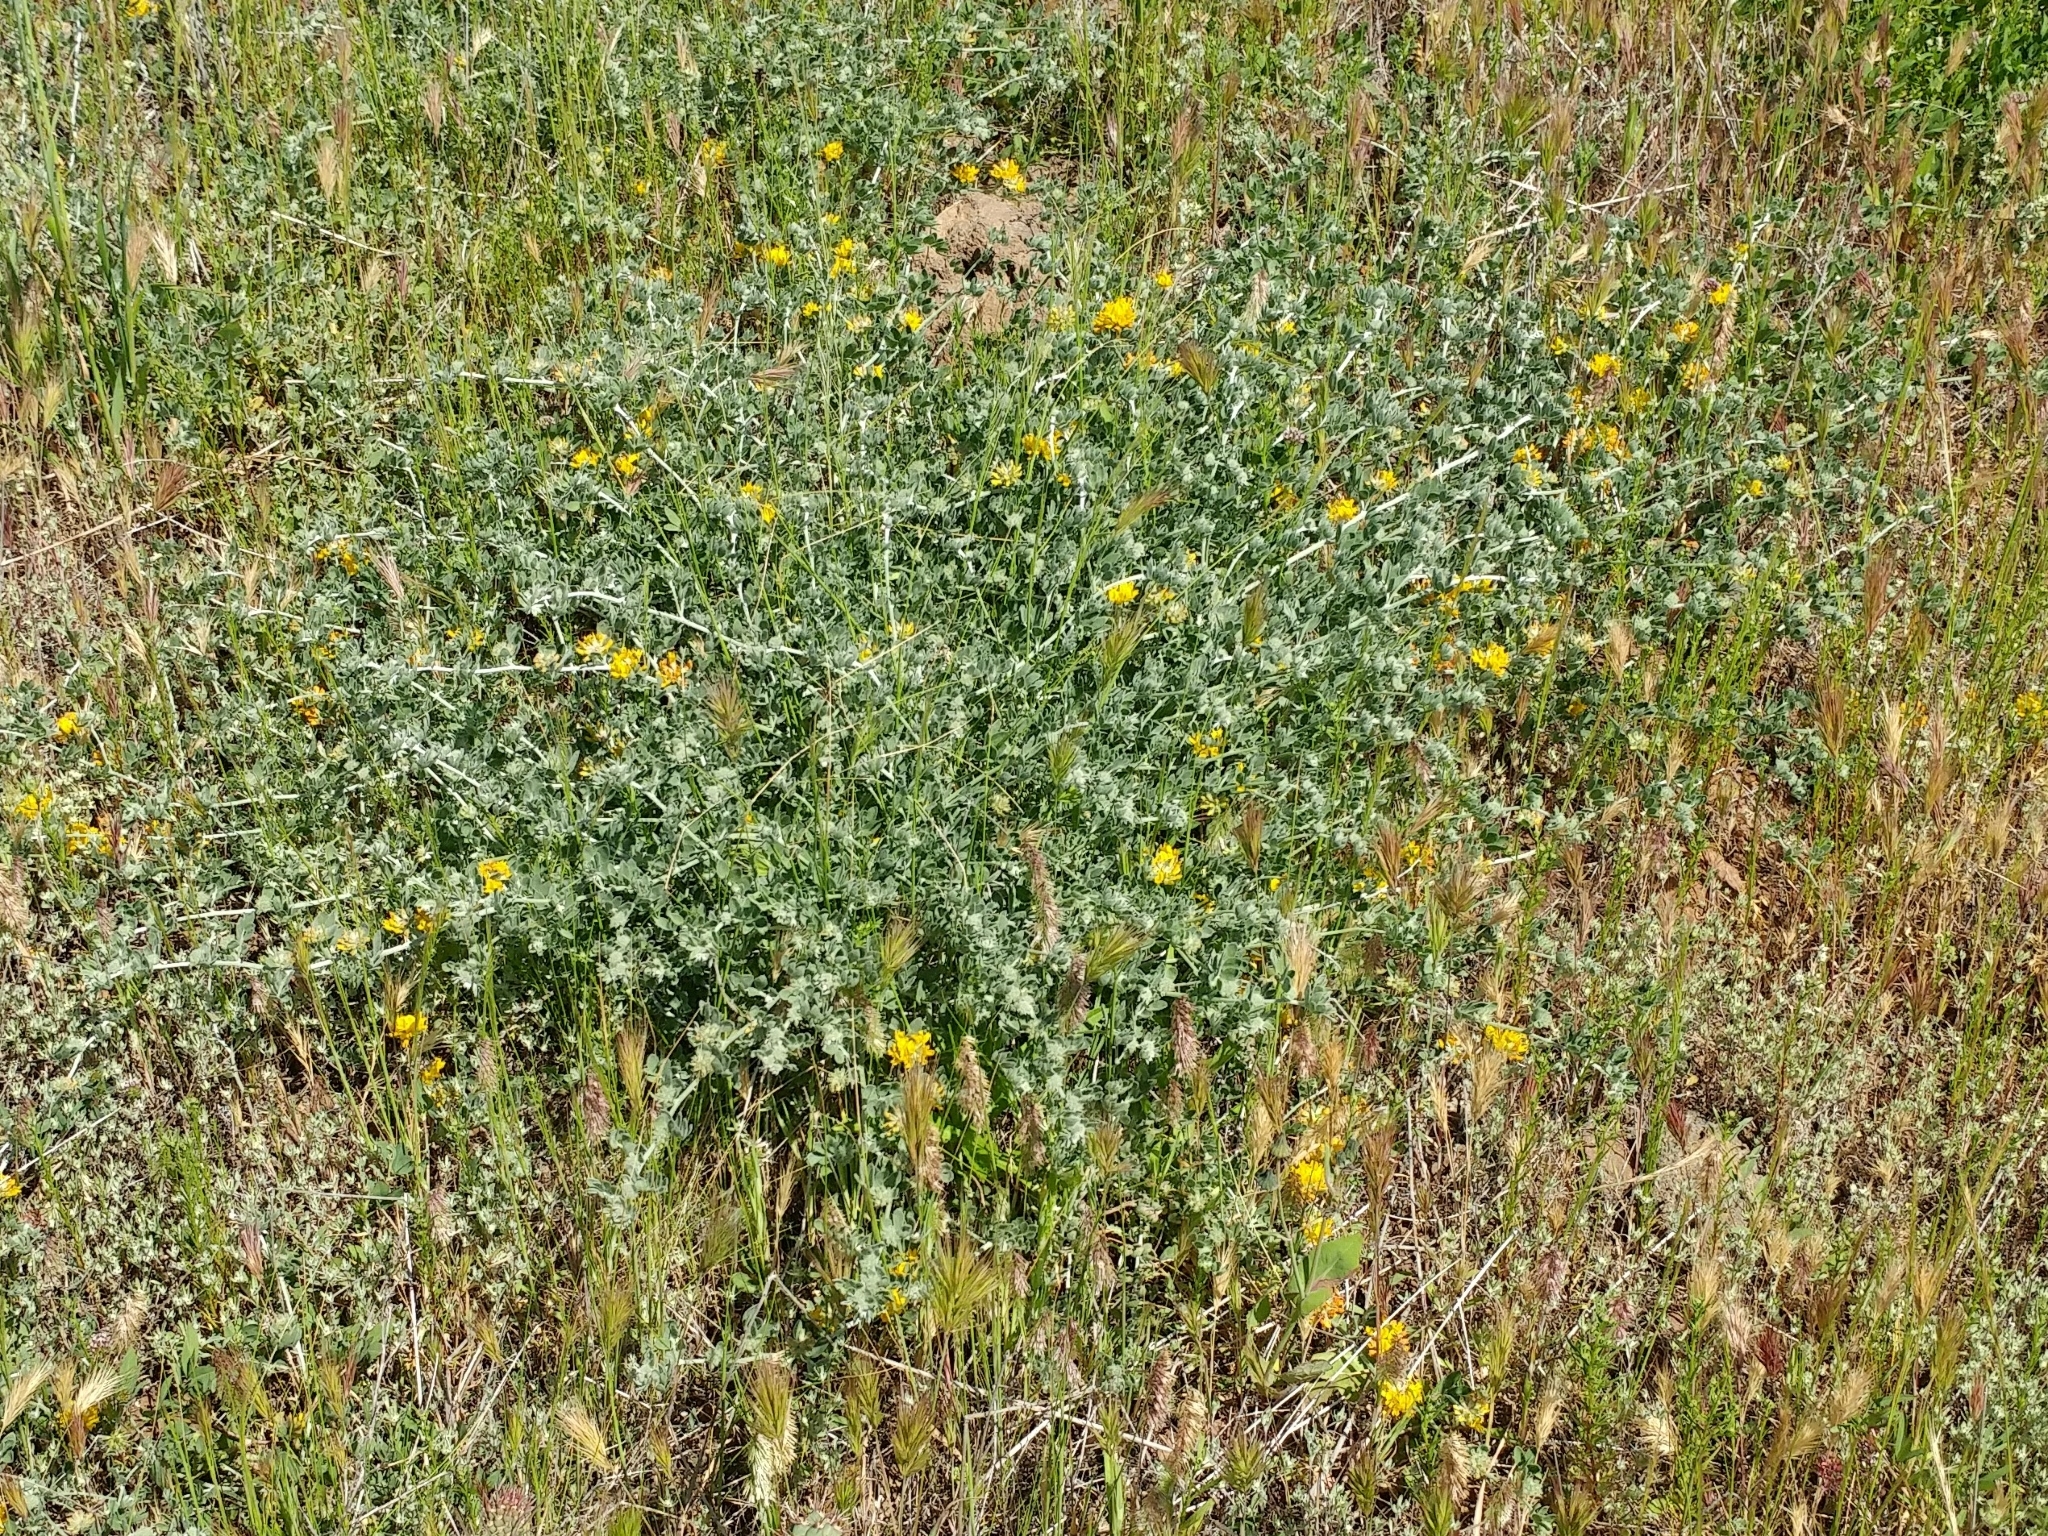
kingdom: Plantae
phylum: Tracheophyta
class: Magnoliopsida
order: Fabales
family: Fabaceae
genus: Acmispon
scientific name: Acmispon argophyllus
